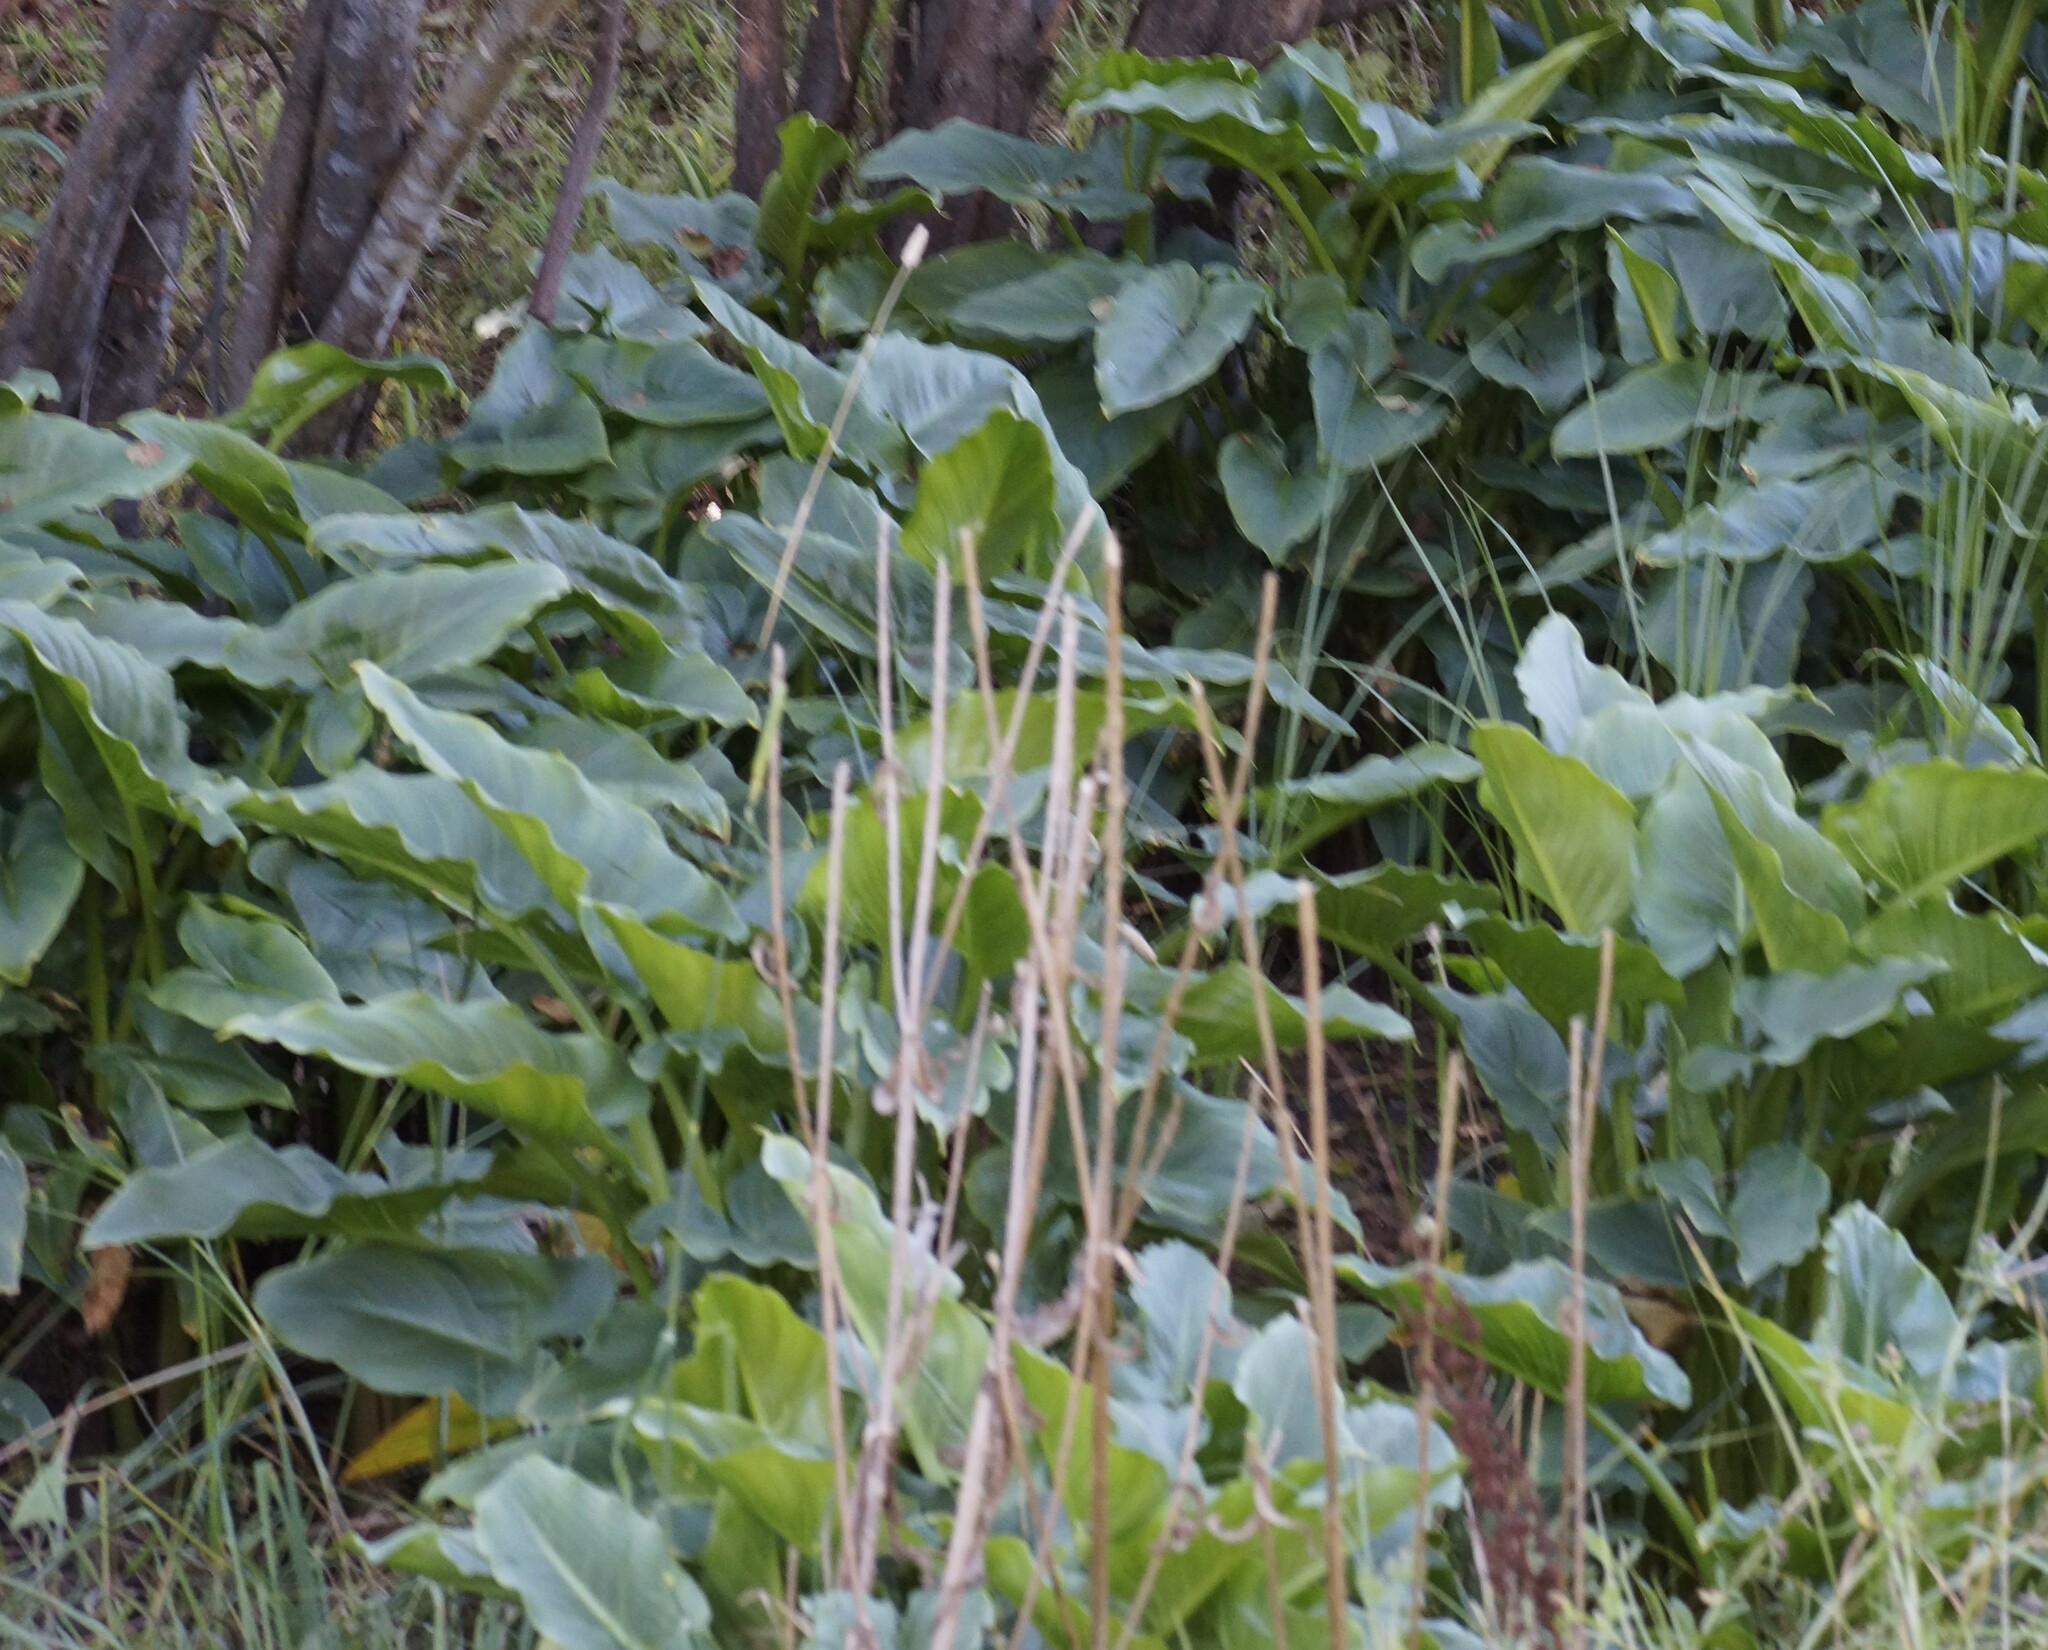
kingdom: Plantae
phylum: Tracheophyta
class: Liliopsida
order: Alismatales
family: Araceae
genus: Zantedeschia
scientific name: Zantedeschia aethiopica
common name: Altar-lily
